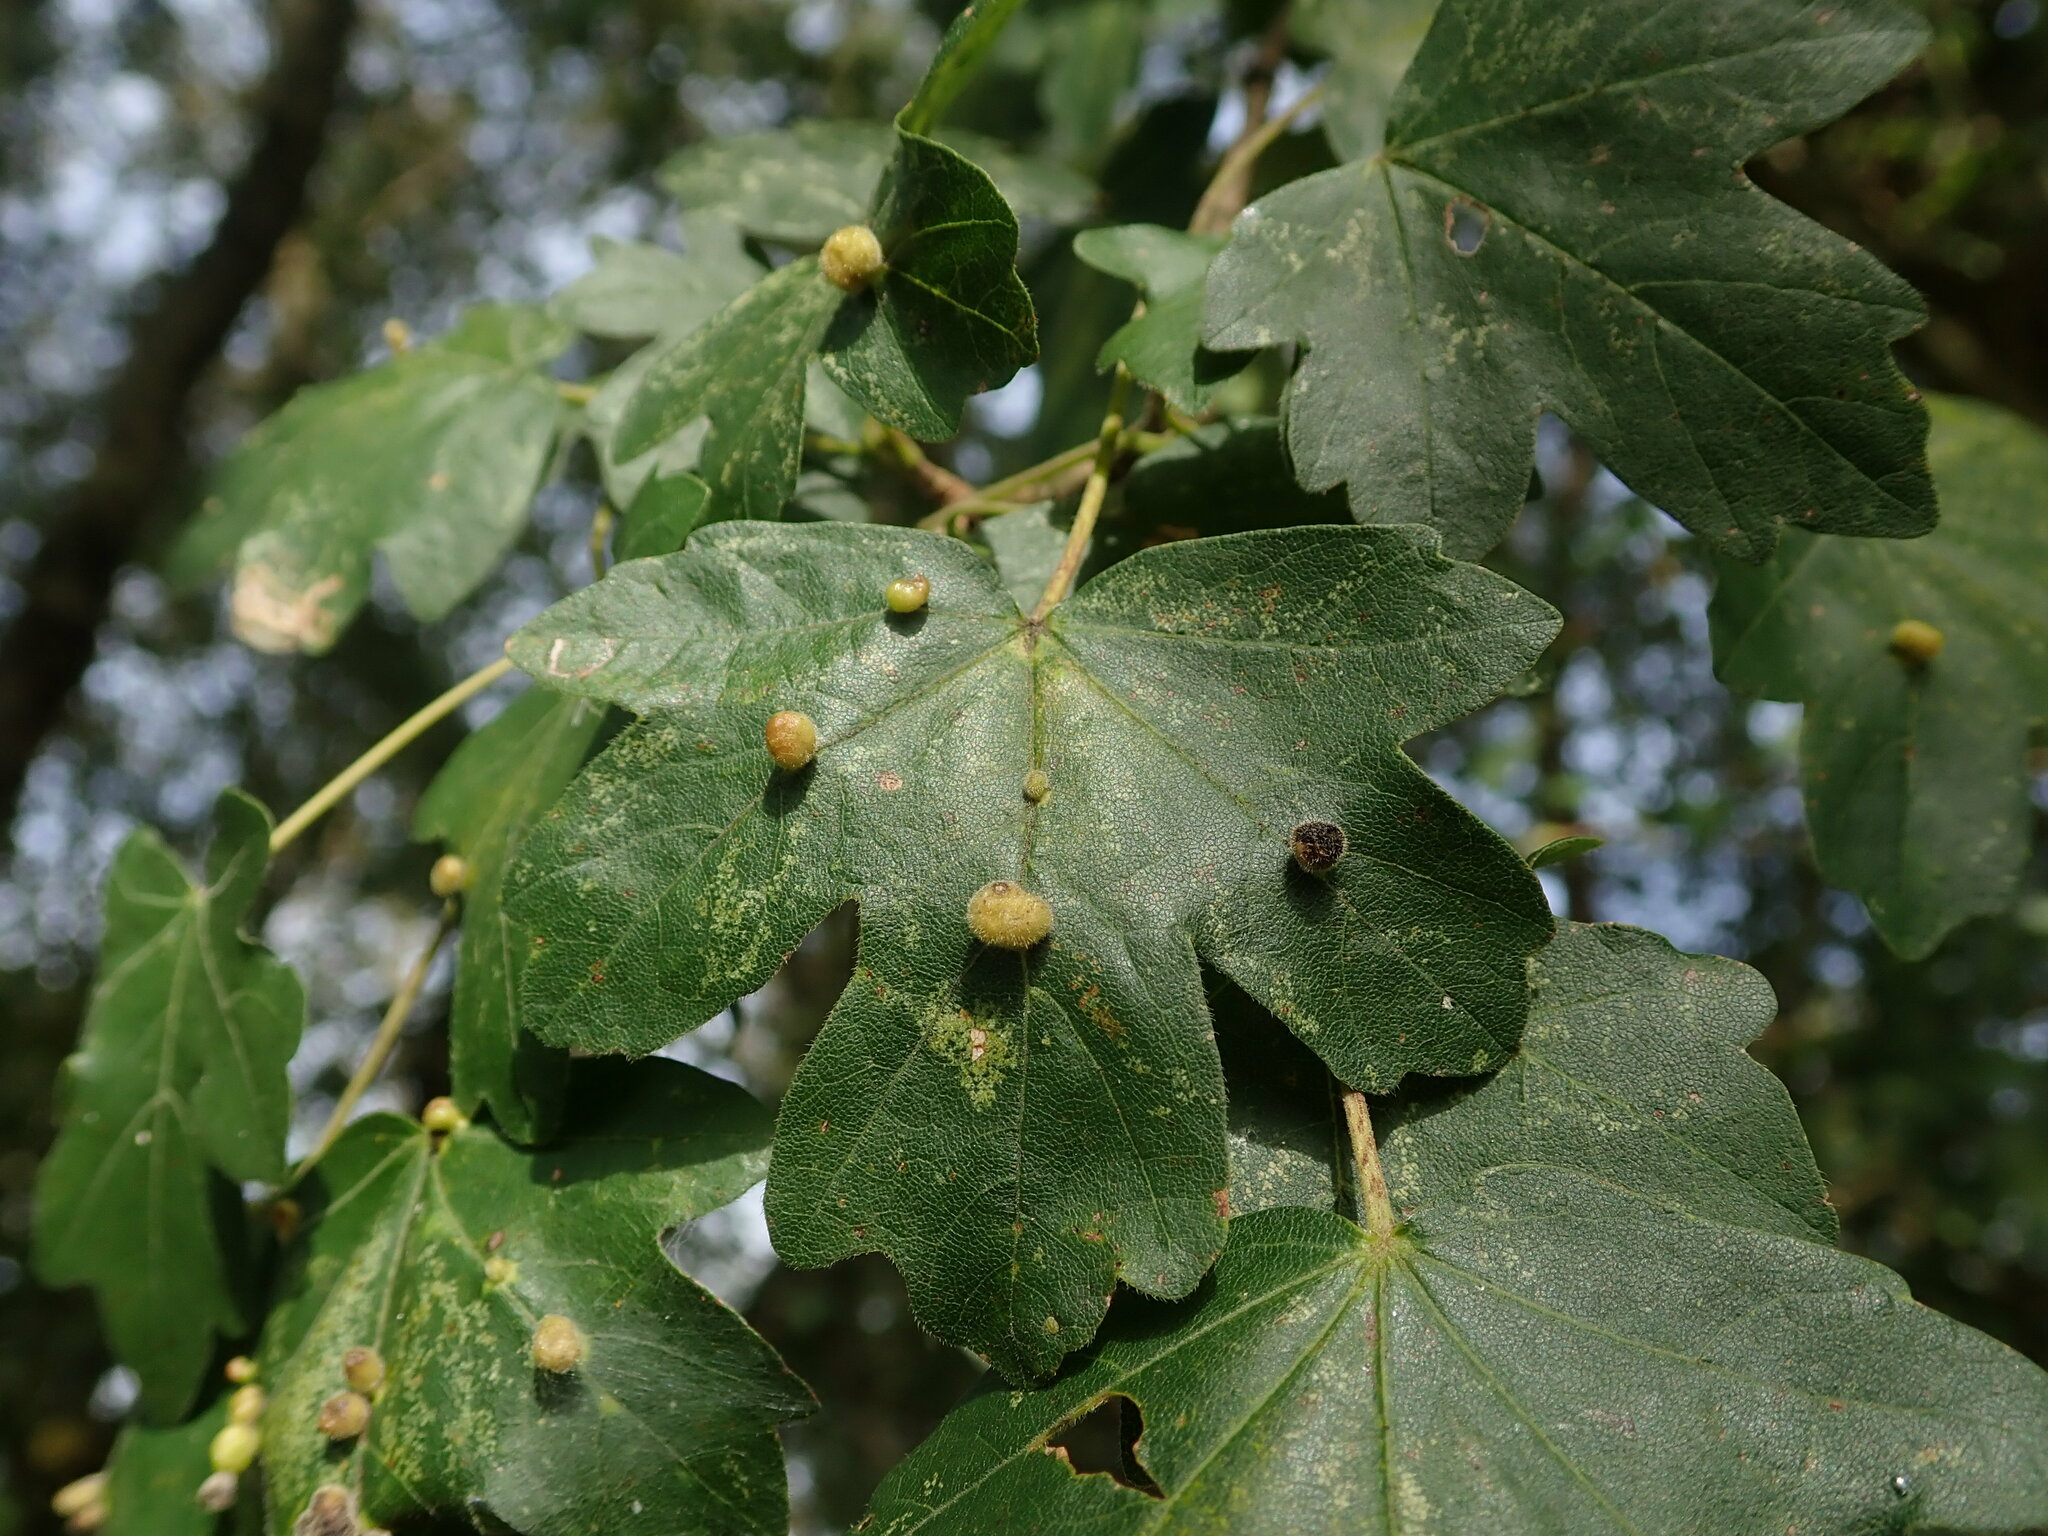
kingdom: Animalia
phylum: Arthropoda
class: Arachnida
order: Trombidiformes
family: Eriophyidae
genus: Aceria
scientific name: Aceria macrochelus
